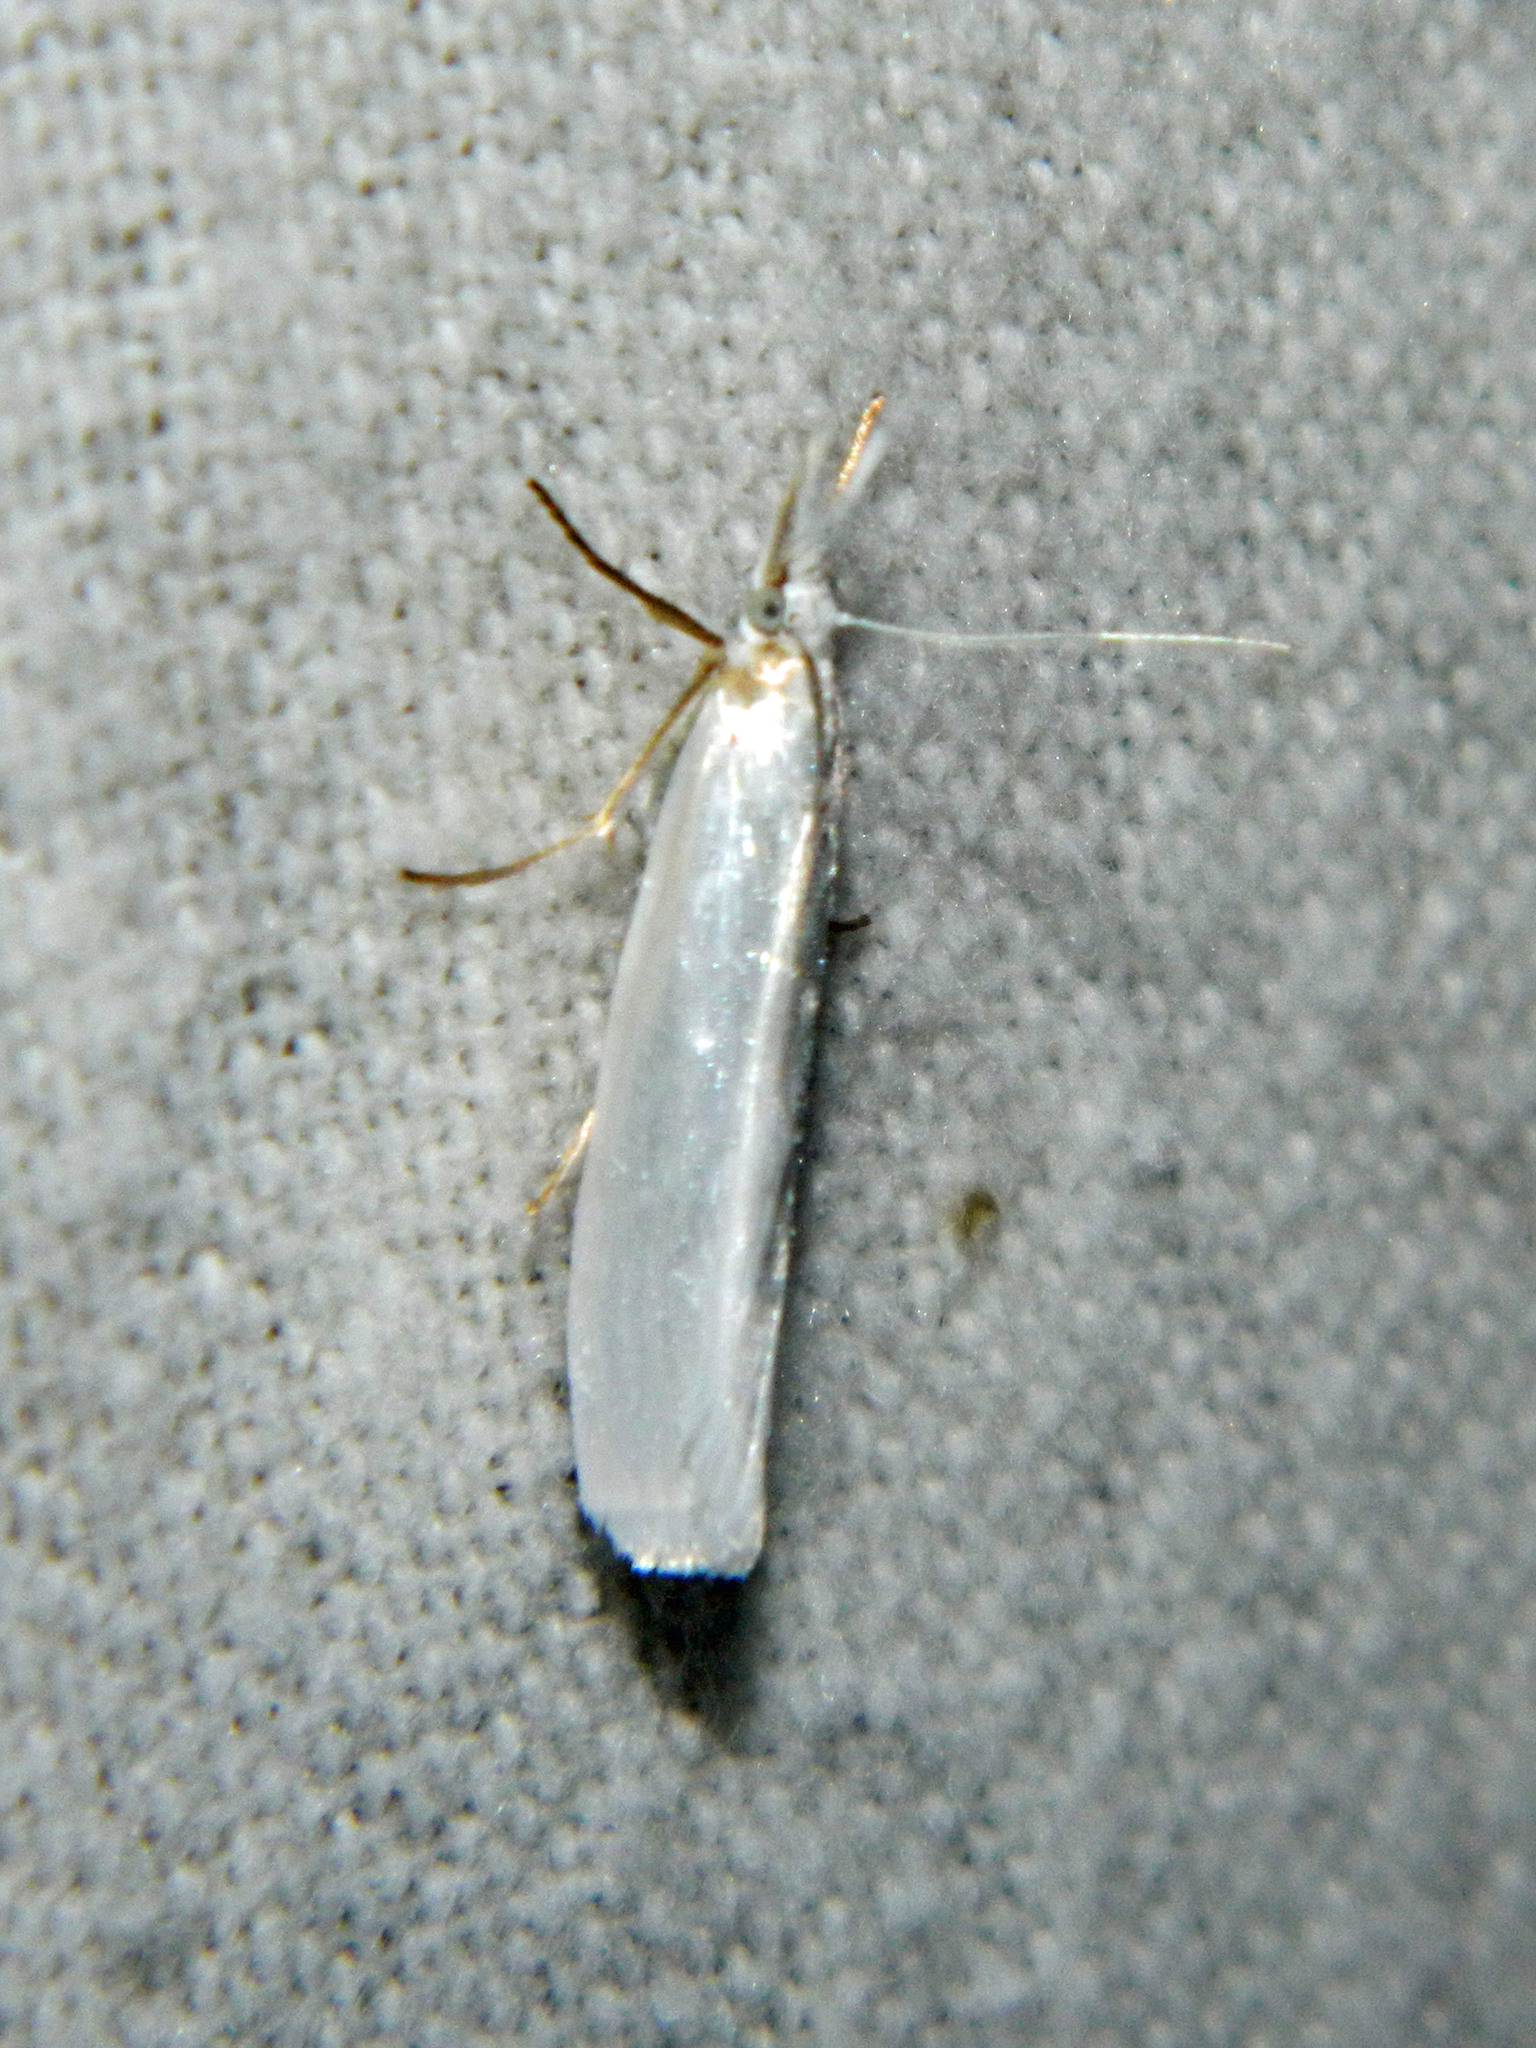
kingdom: Animalia
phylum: Arthropoda
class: Insecta
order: Lepidoptera
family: Crambidae
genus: Crambus
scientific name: Crambus perlellus
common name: Yellow satin veneer
